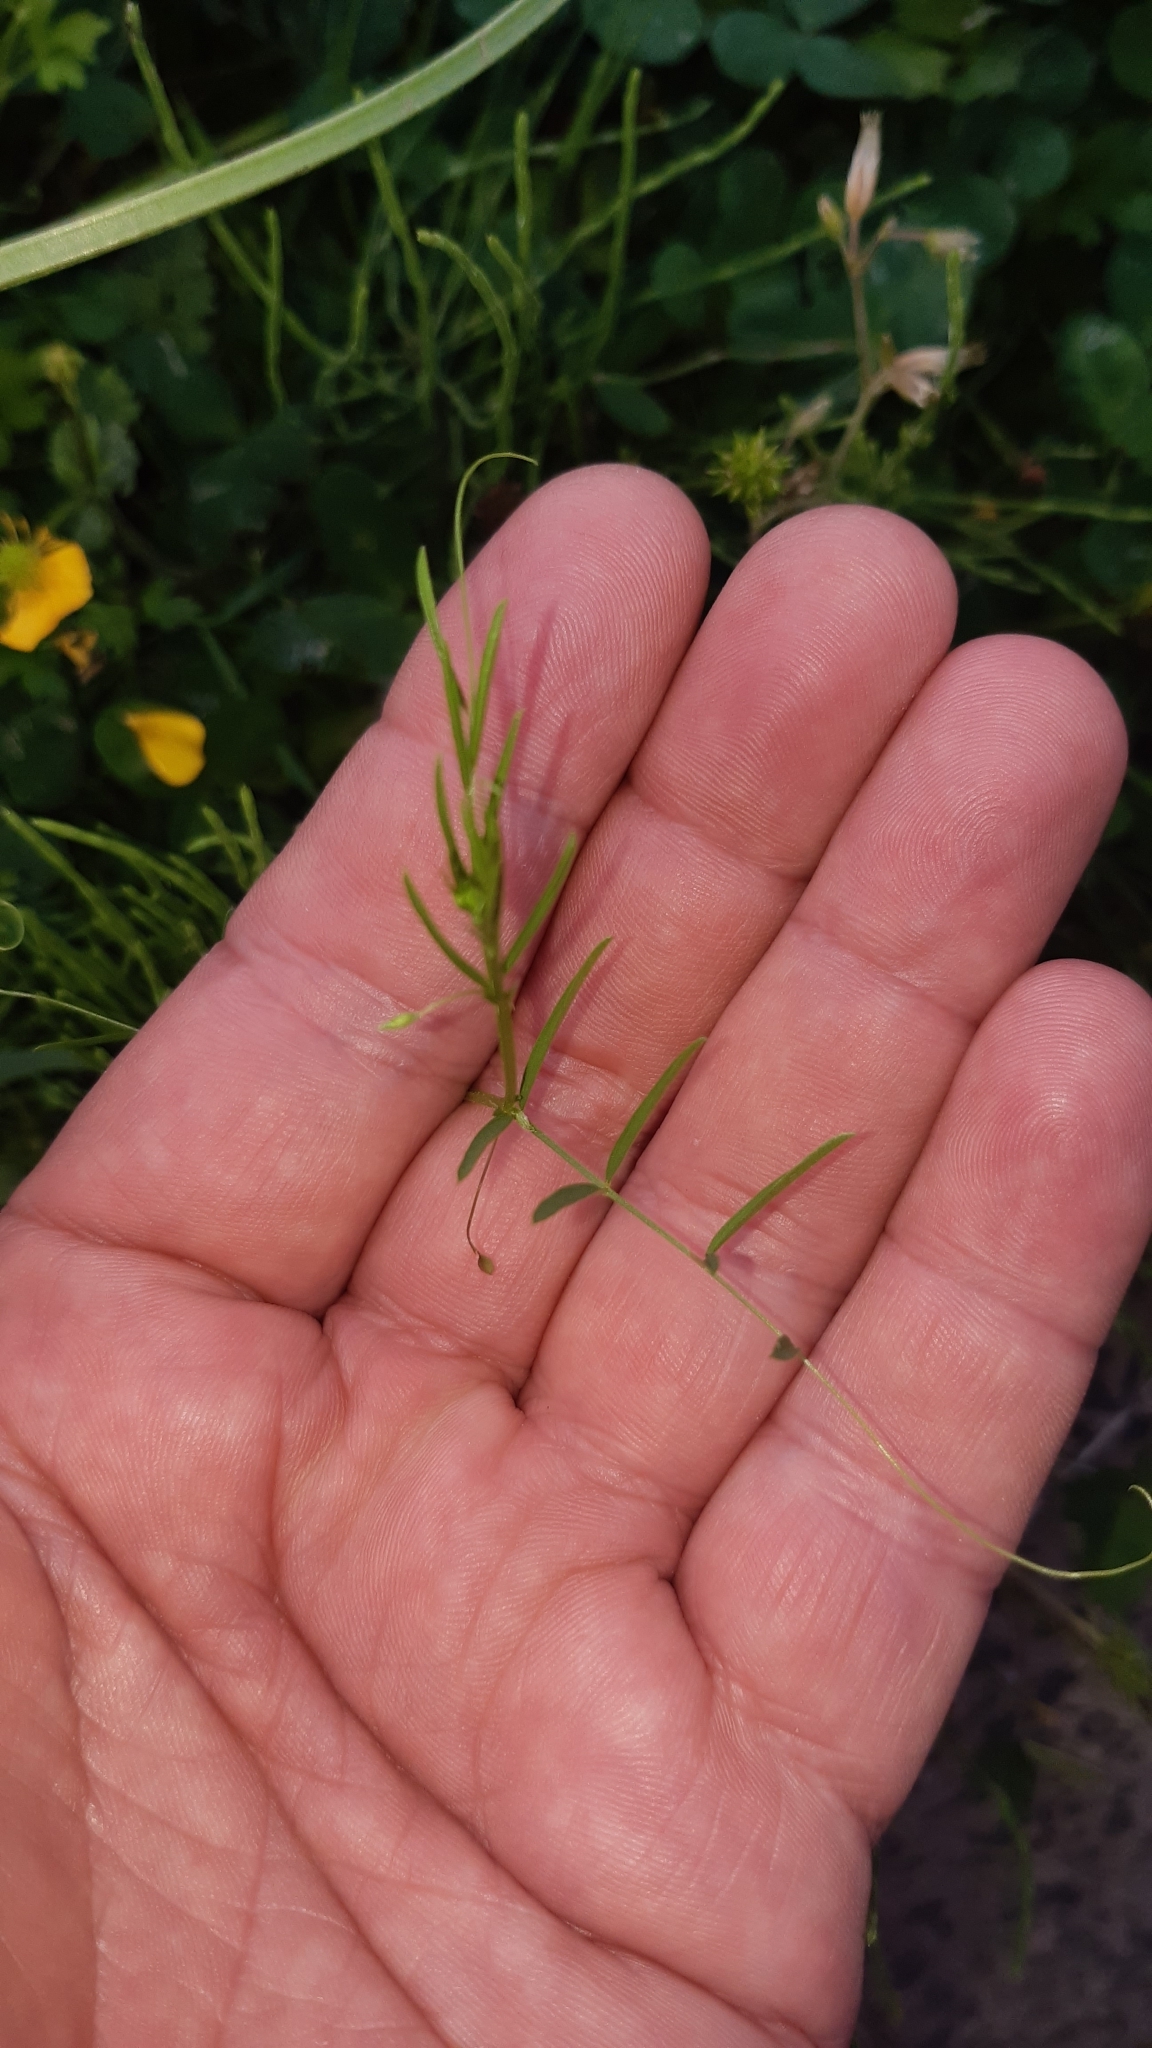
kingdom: Plantae
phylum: Tracheophyta
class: Magnoliopsida
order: Fabales
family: Fabaceae
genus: Vicia
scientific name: Vicia tetrasperma
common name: Smooth tare
